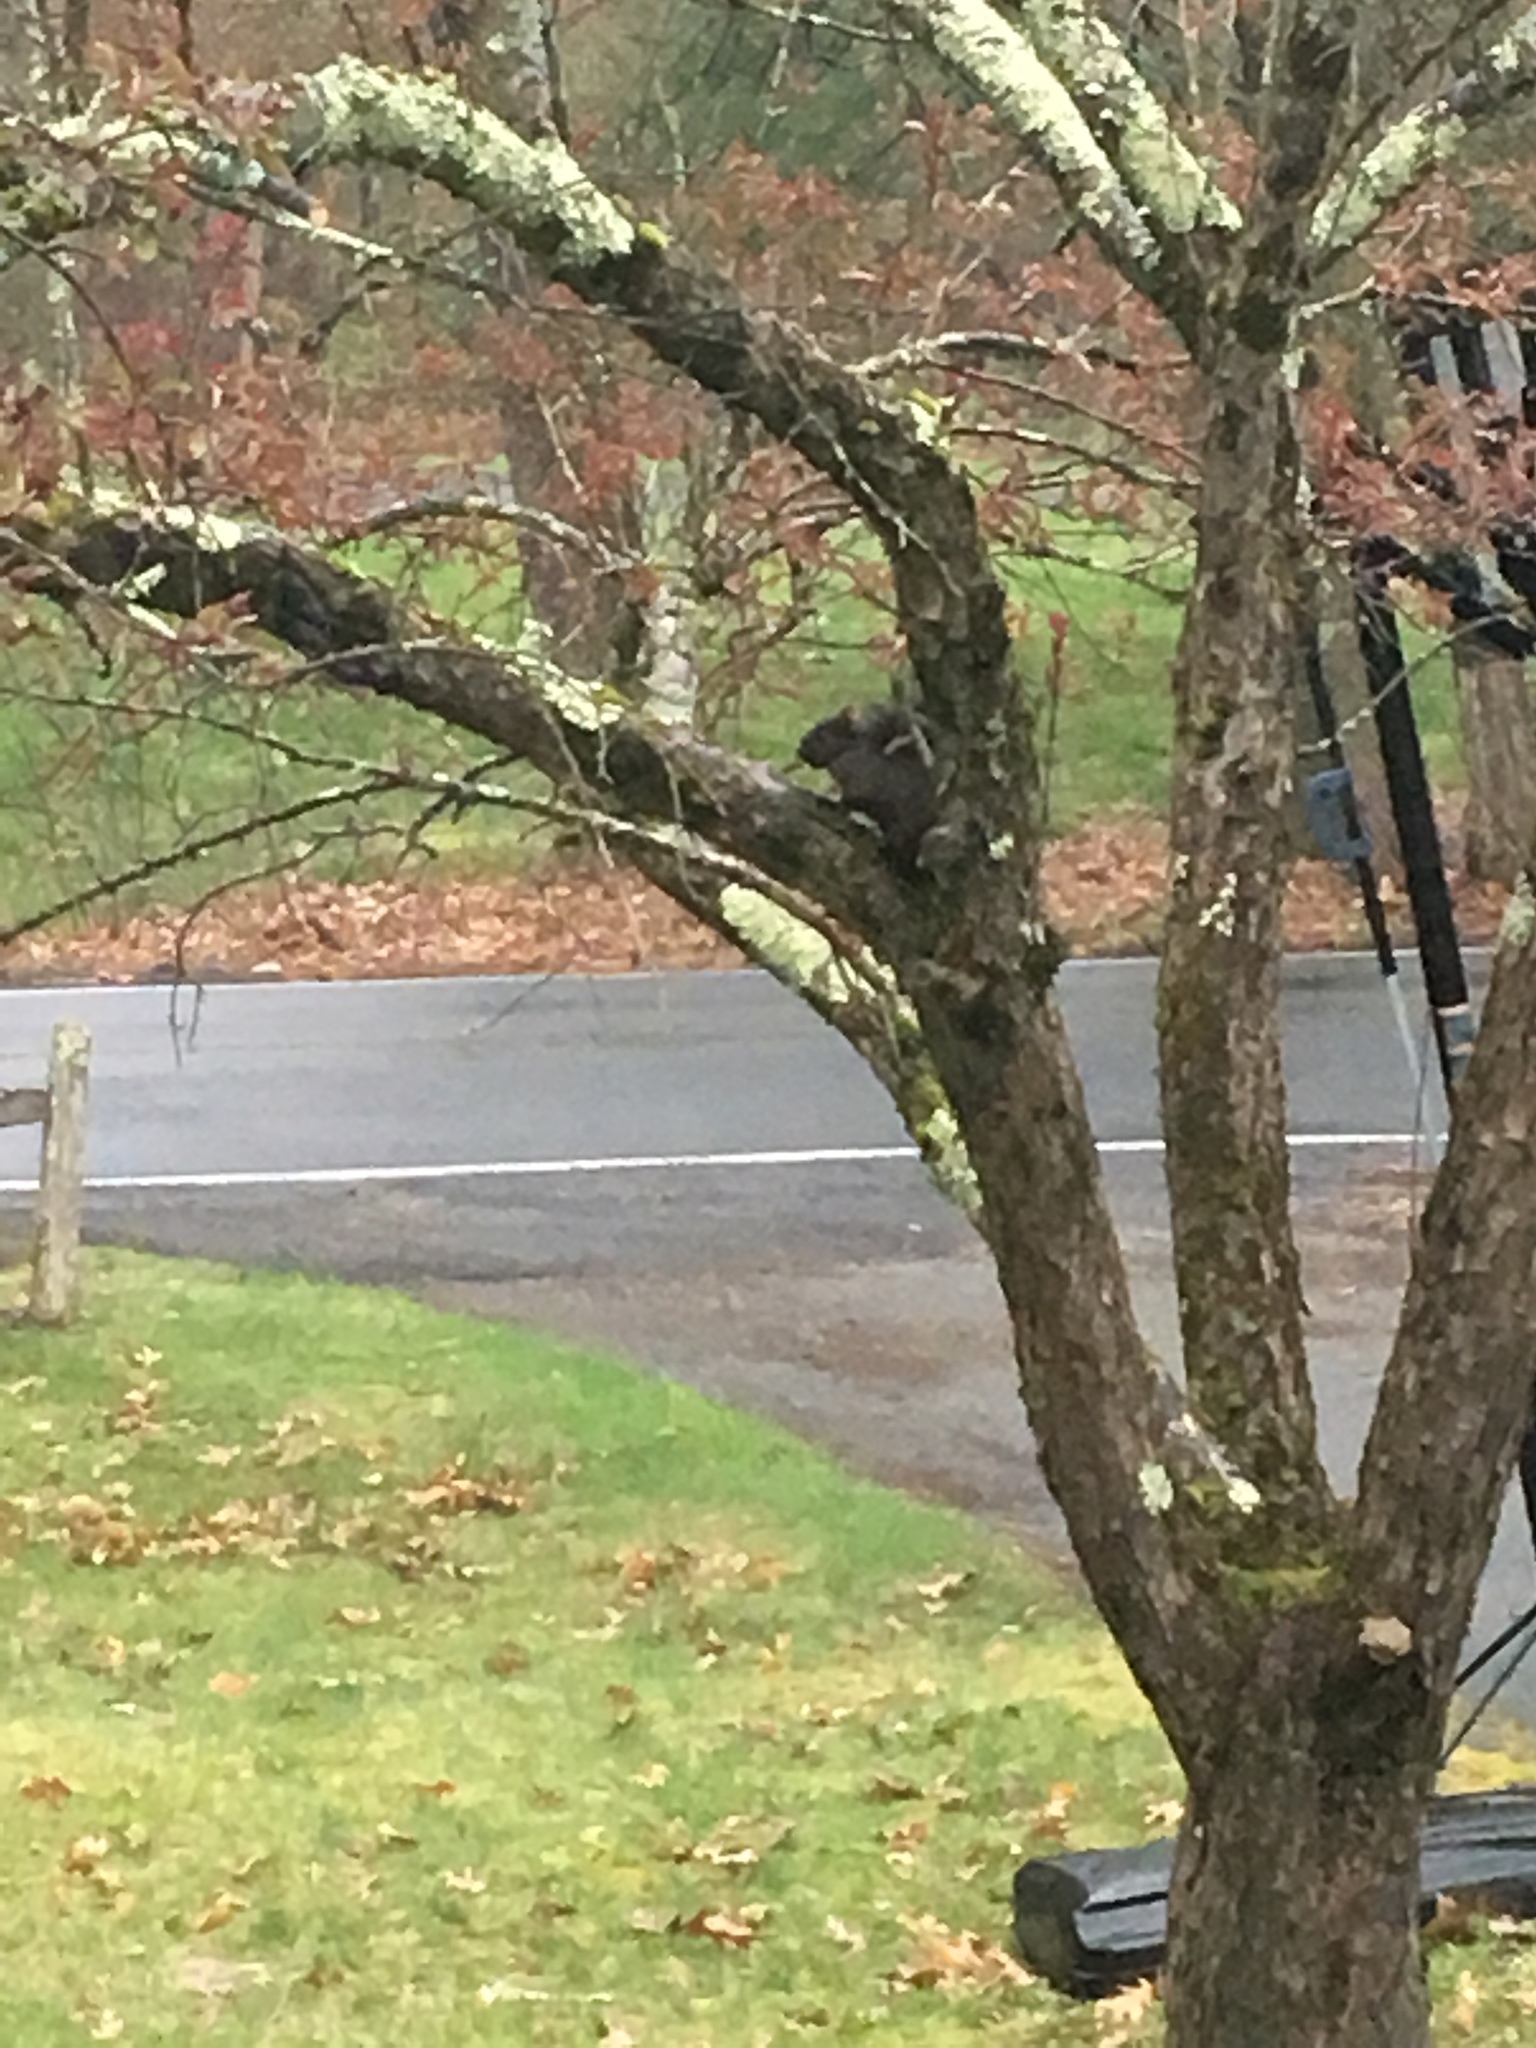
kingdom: Animalia
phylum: Chordata
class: Mammalia
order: Rodentia
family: Sciuridae
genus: Sciurus
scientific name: Sciurus carolinensis
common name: Eastern gray squirrel
